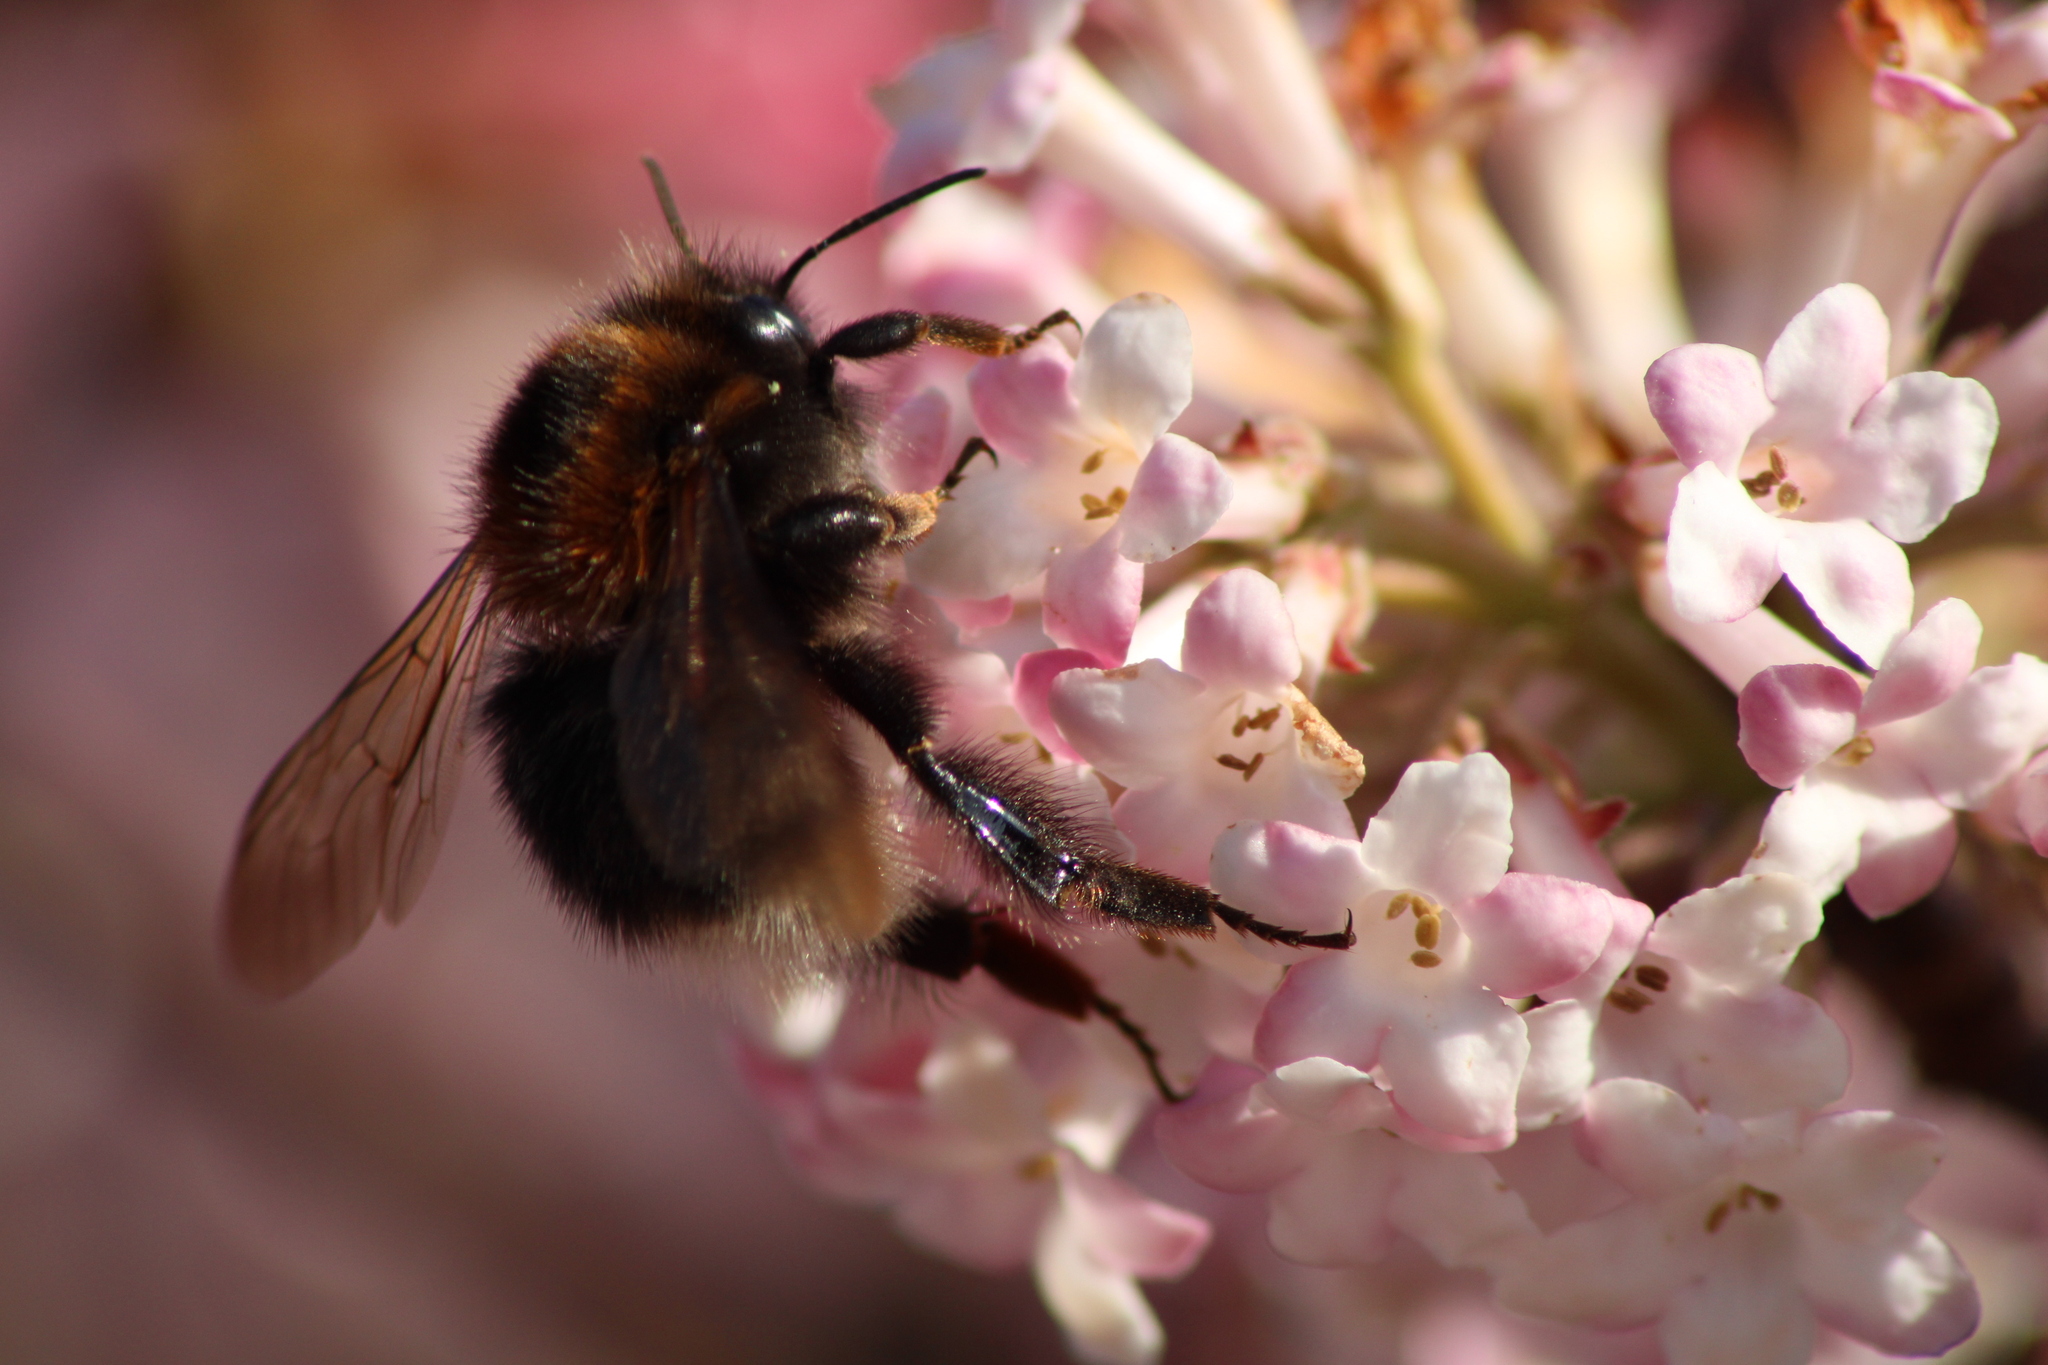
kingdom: Animalia
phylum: Arthropoda
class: Insecta
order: Hymenoptera
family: Apidae
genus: Bombus
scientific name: Bombus hypnorum
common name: New garden bumblebee
